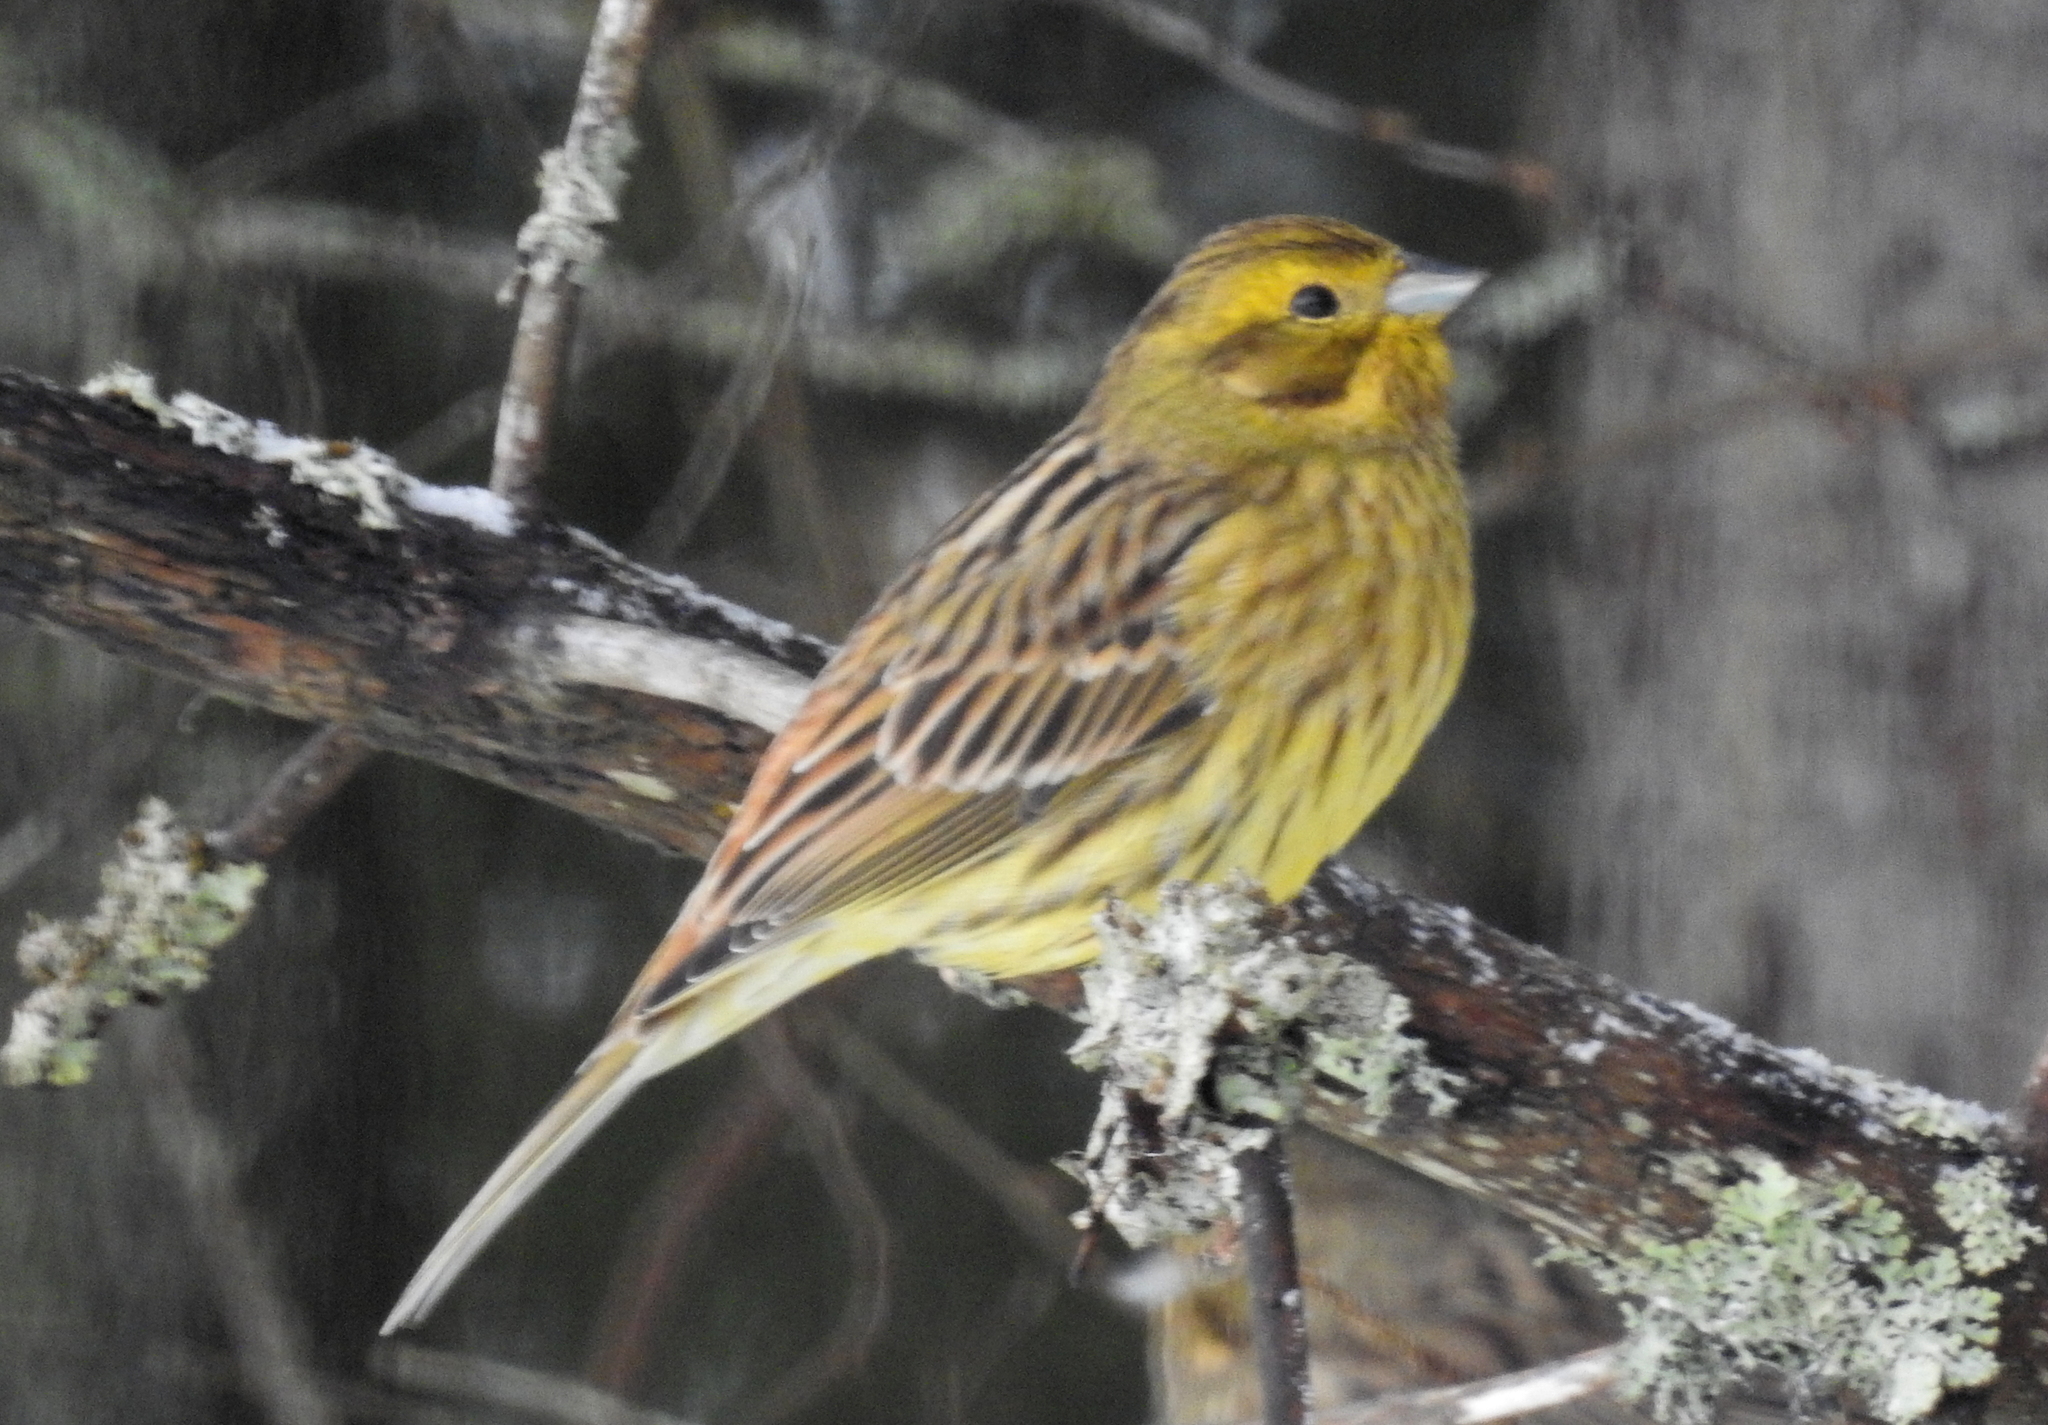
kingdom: Animalia
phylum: Chordata
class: Aves
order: Passeriformes
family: Emberizidae
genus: Emberiza
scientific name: Emberiza citrinella
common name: Yellowhammer
